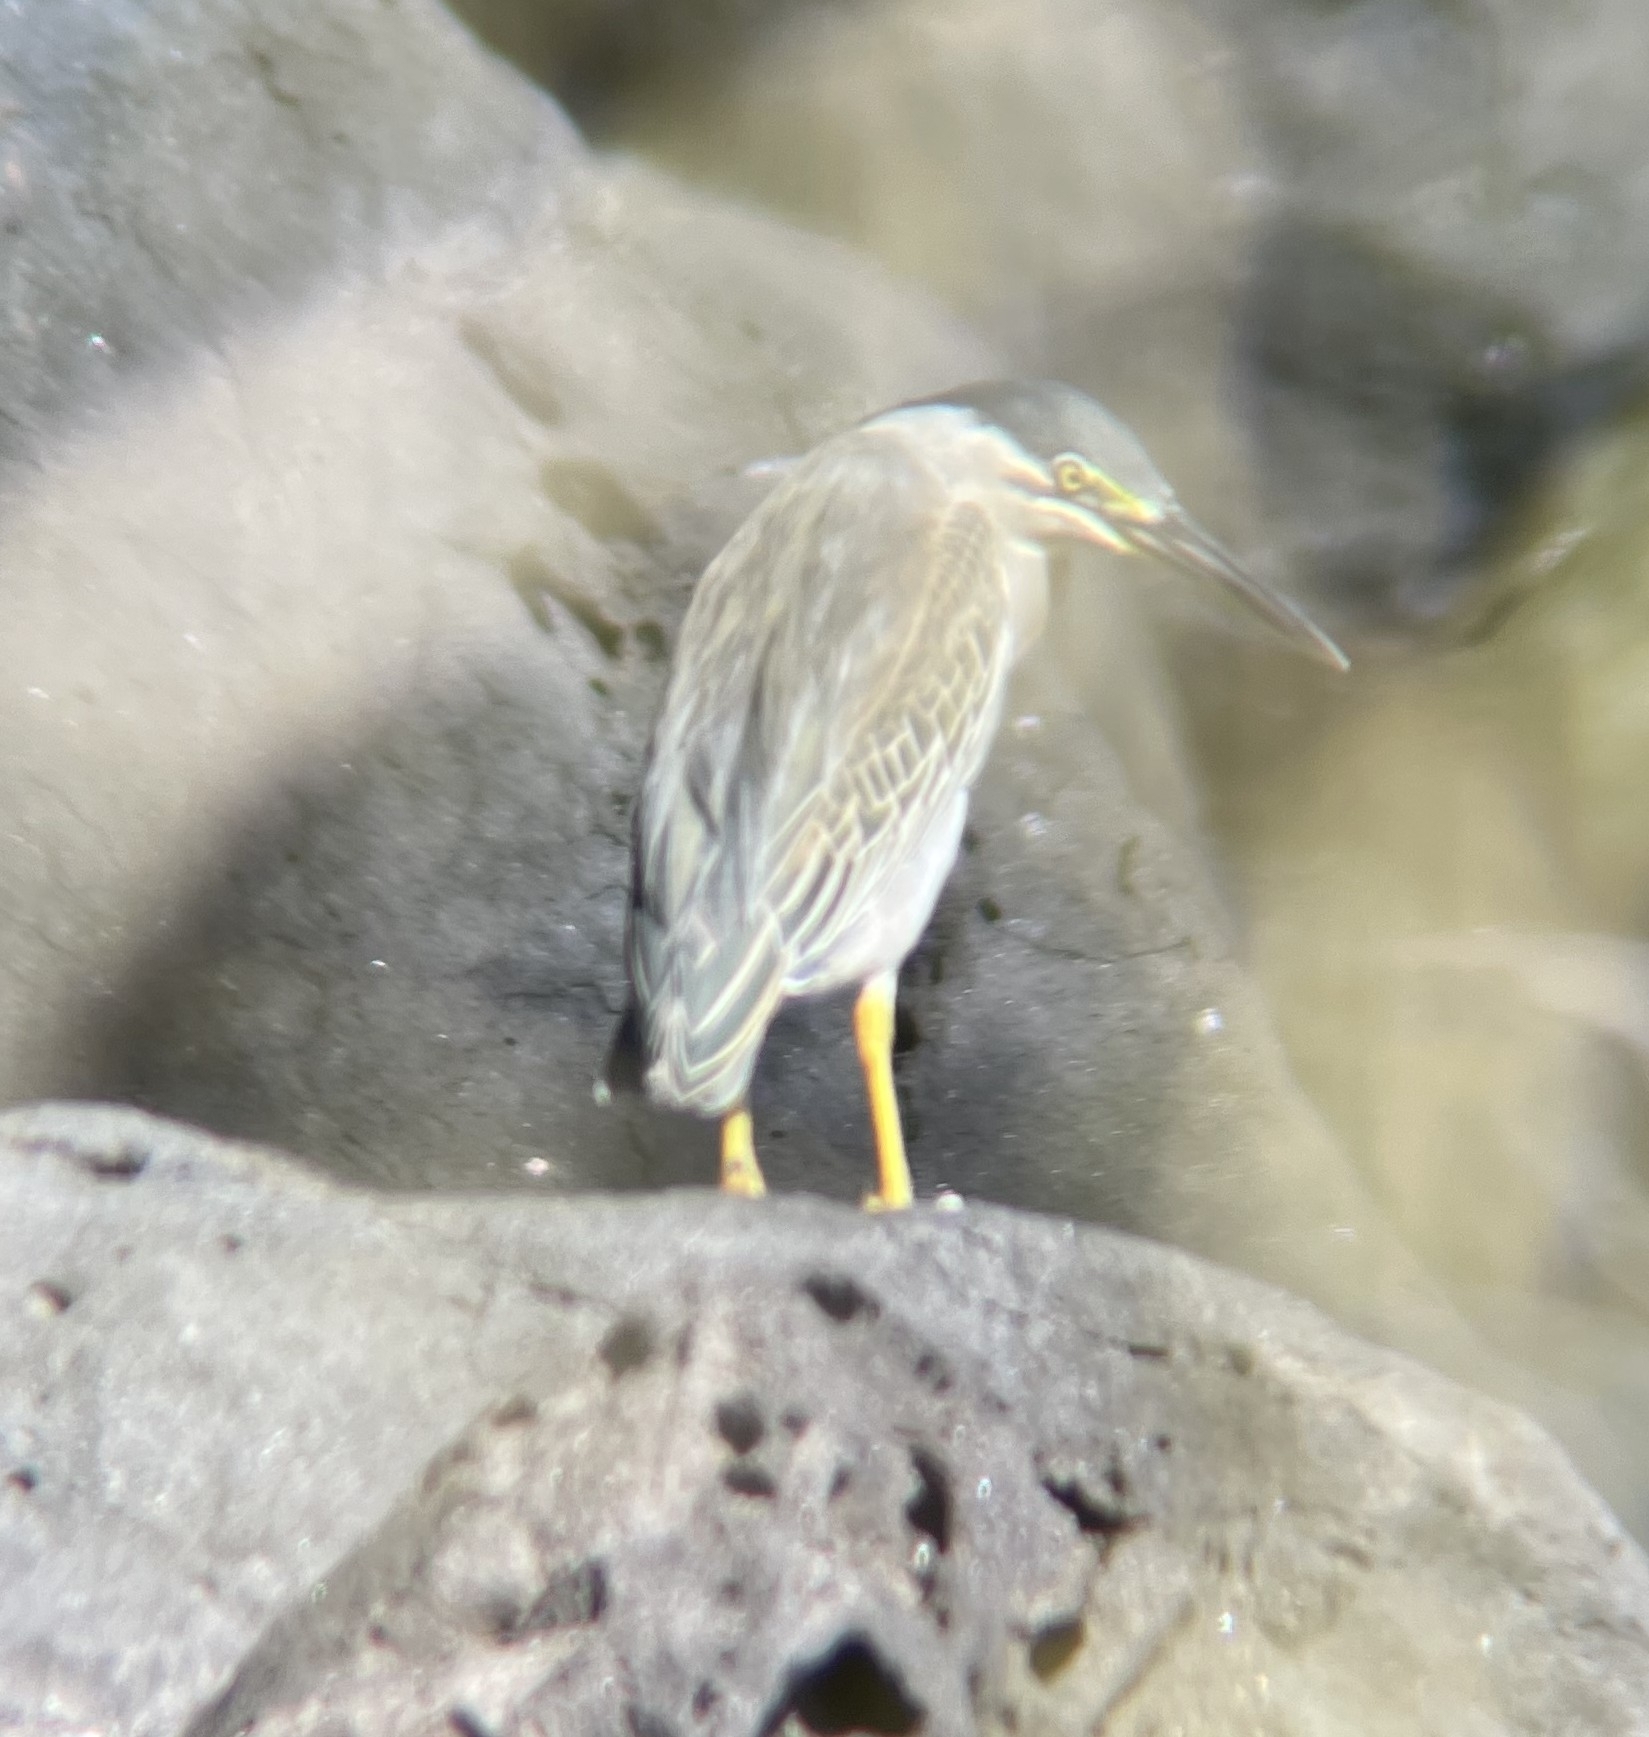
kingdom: Animalia
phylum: Chordata
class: Aves
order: Pelecaniformes
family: Ardeidae
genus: Butorides
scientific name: Butorides striata
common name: Striated heron
